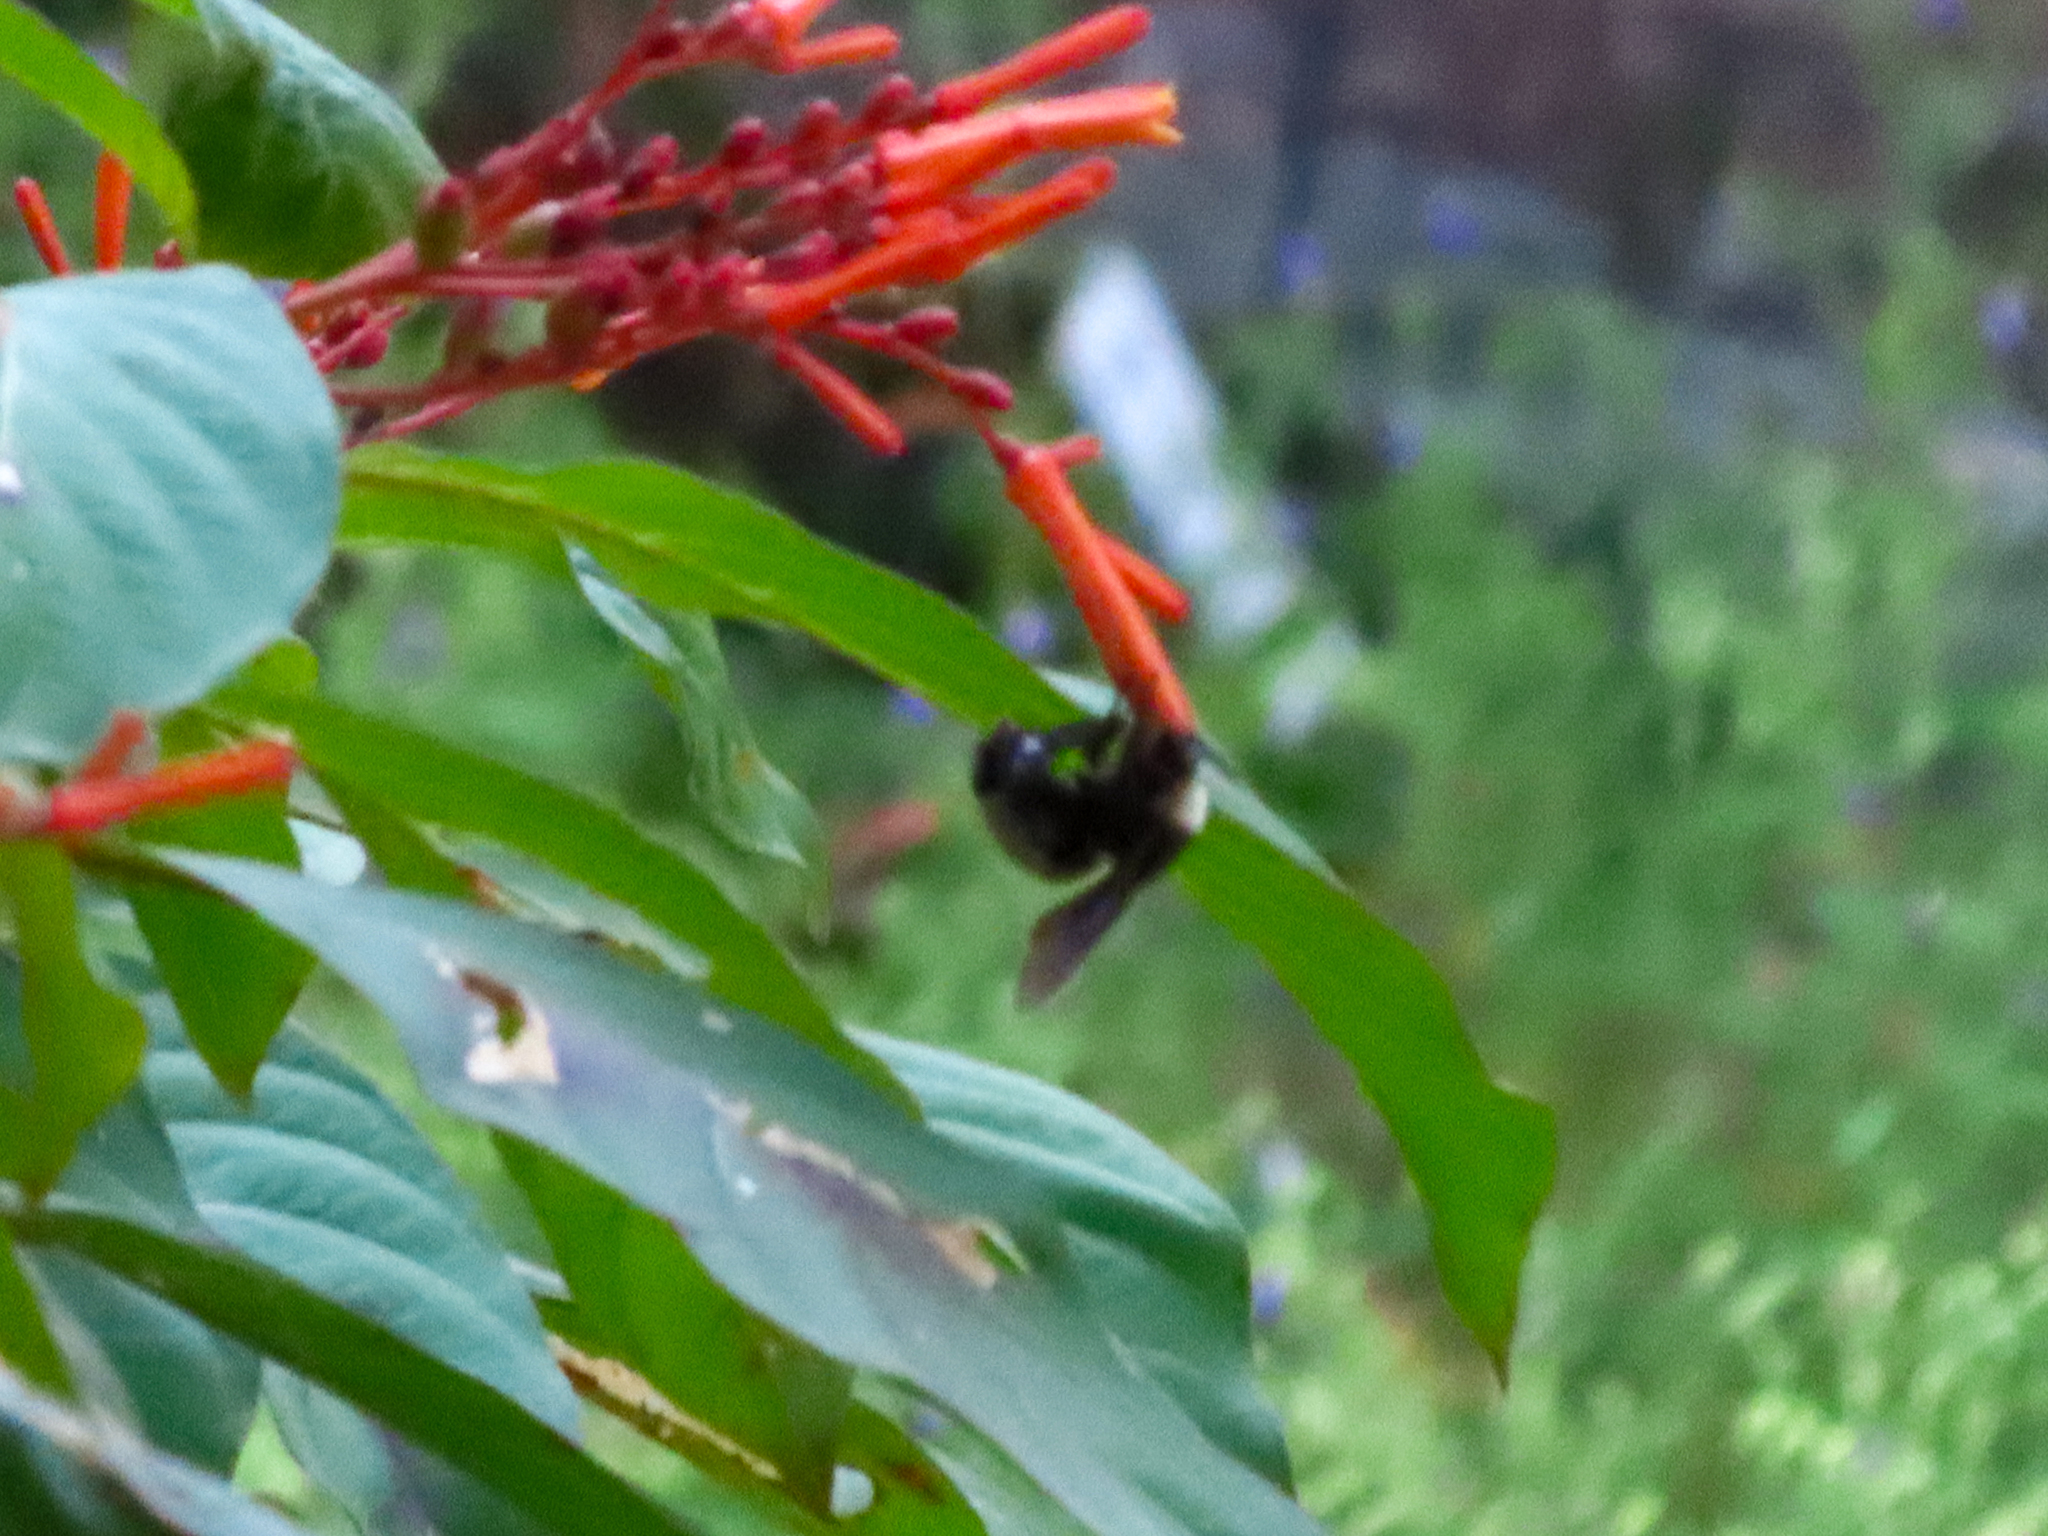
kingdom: Animalia
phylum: Arthropoda
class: Insecta
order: Hymenoptera
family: Apidae
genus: Bombus
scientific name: Bombus pensylvanicus
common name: Bumble bee
